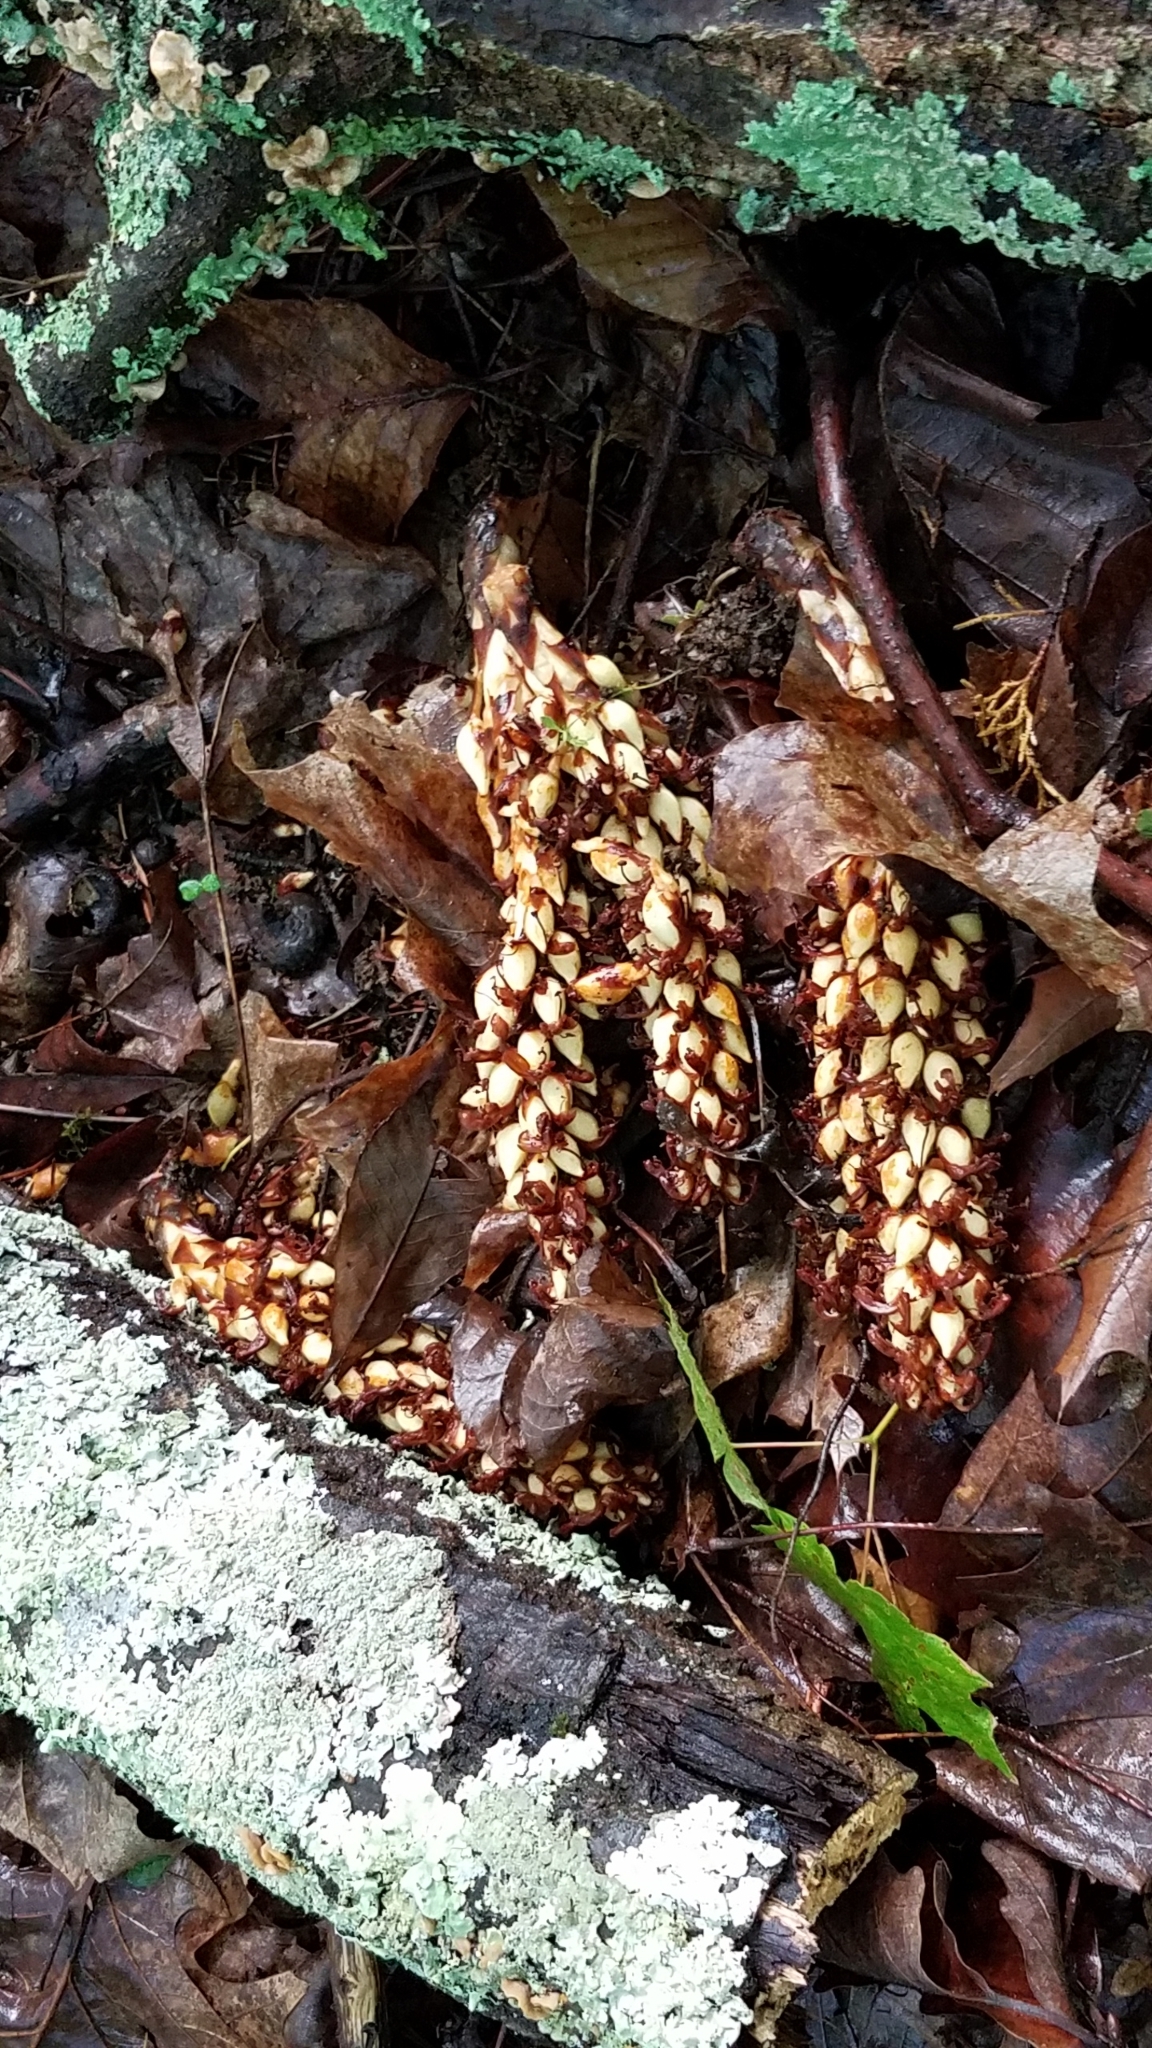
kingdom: Plantae
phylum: Tracheophyta
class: Magnoliopsida
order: Lamiales
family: Orobanchaceae
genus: Conopholis
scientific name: Conopholis americana
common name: American cancer-root
